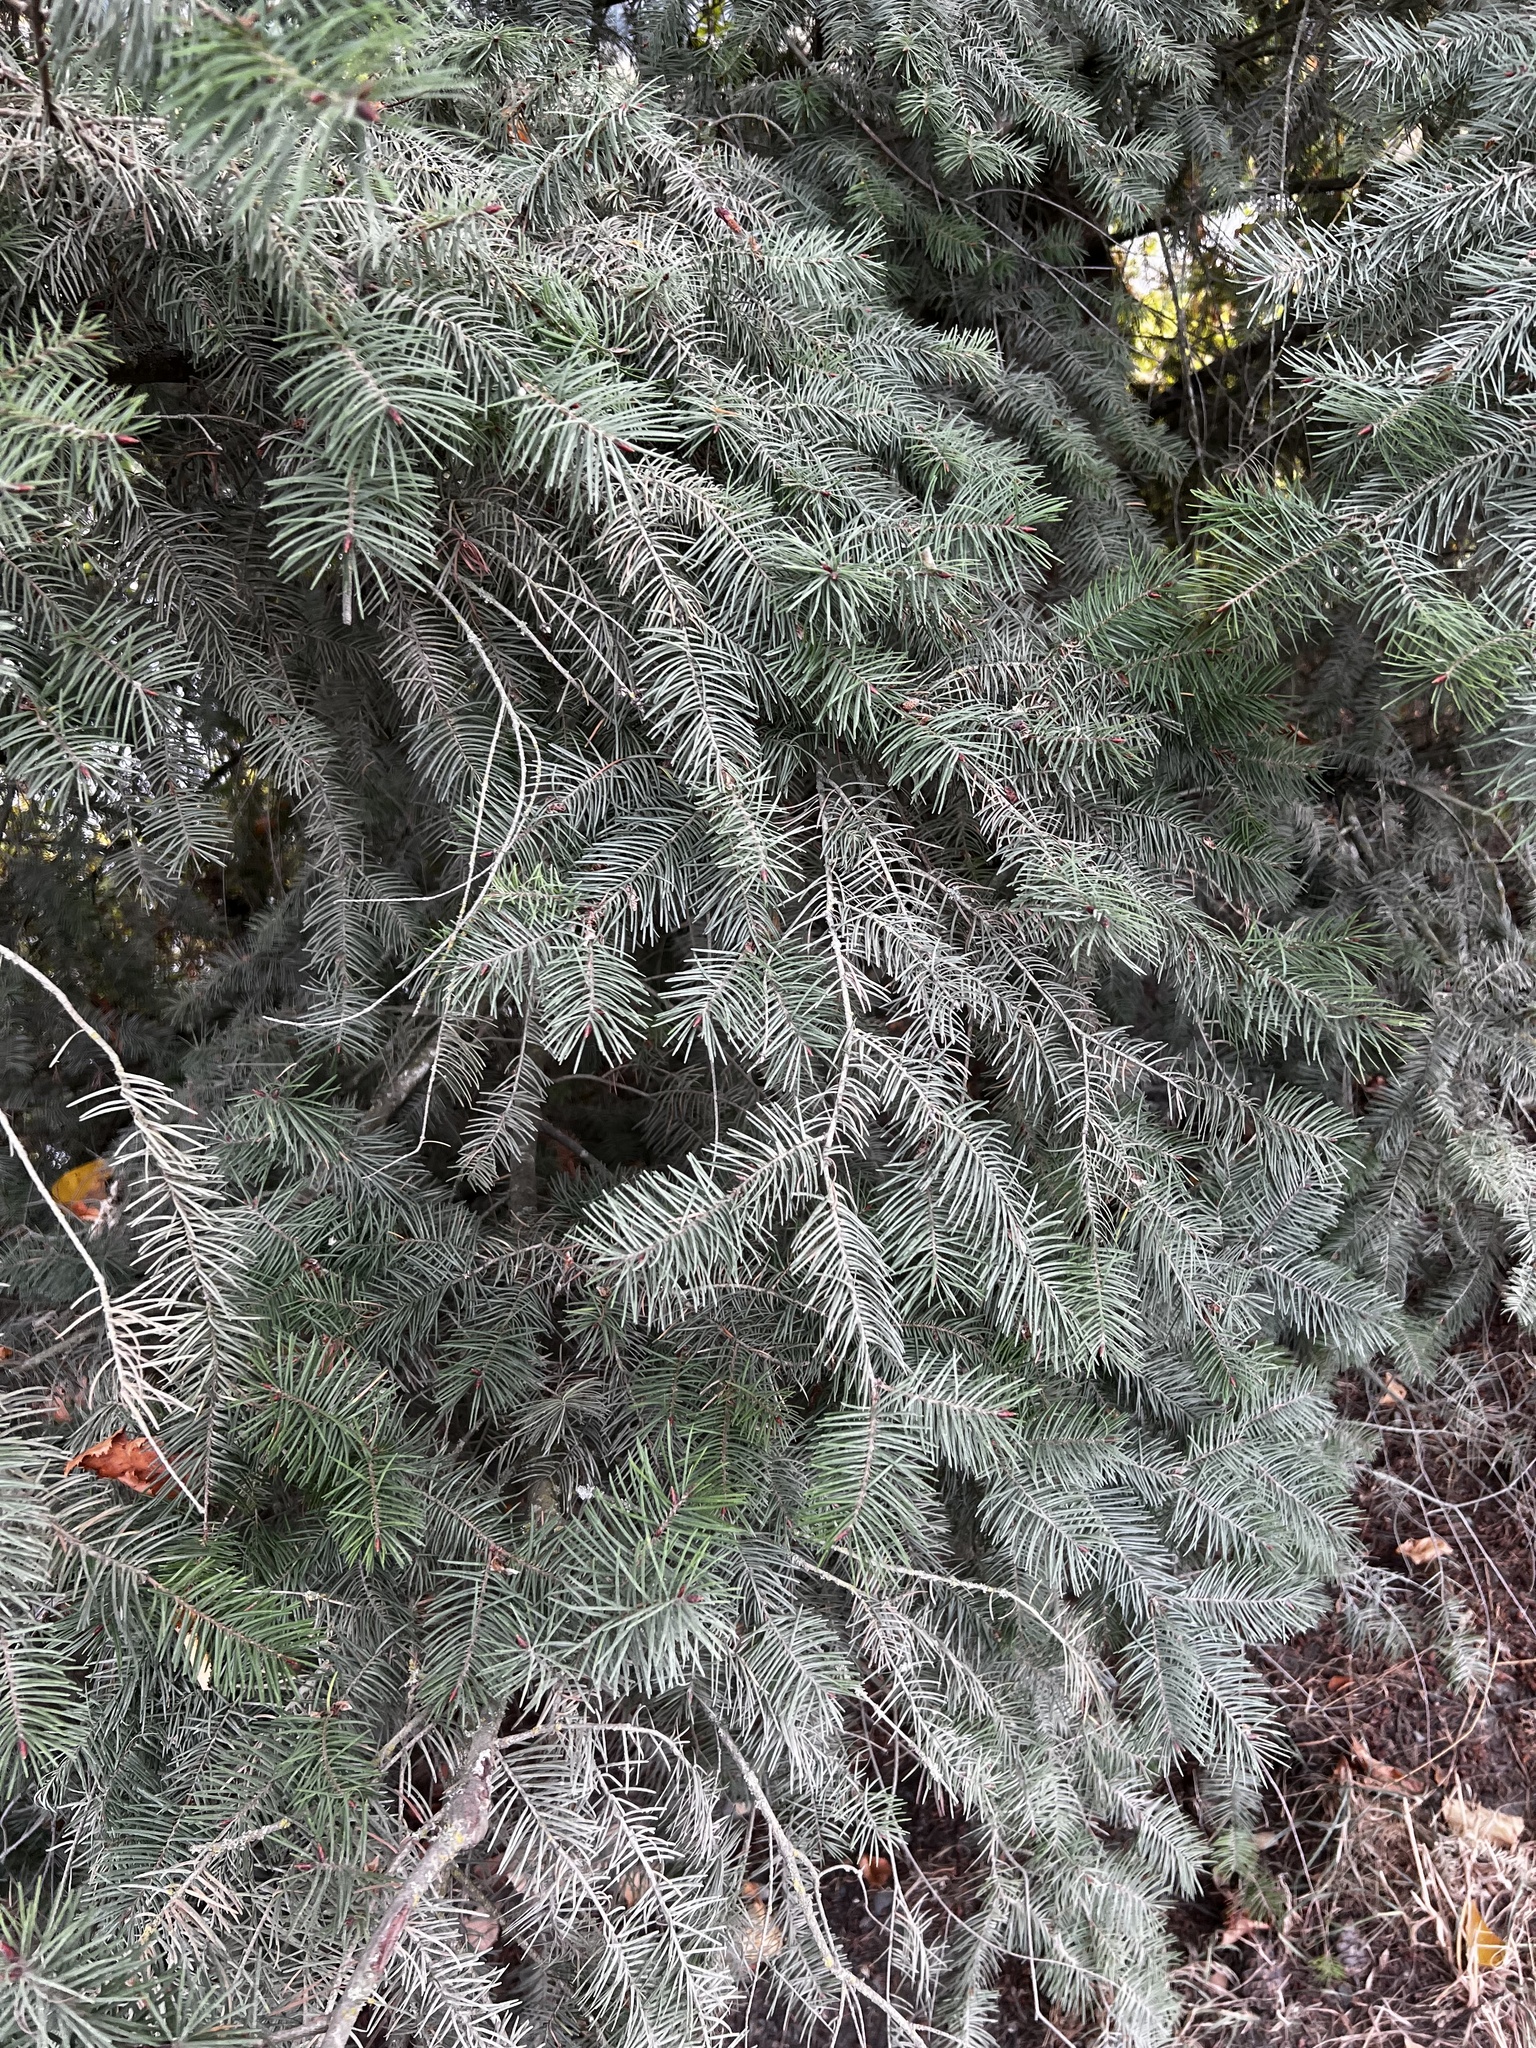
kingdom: Plantae
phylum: Tracheophyta
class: Pinopsida
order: Pinales
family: Pinaceae
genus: Pseudotsuga
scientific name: Pseudotsuga menziesii
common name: Douglas fir
